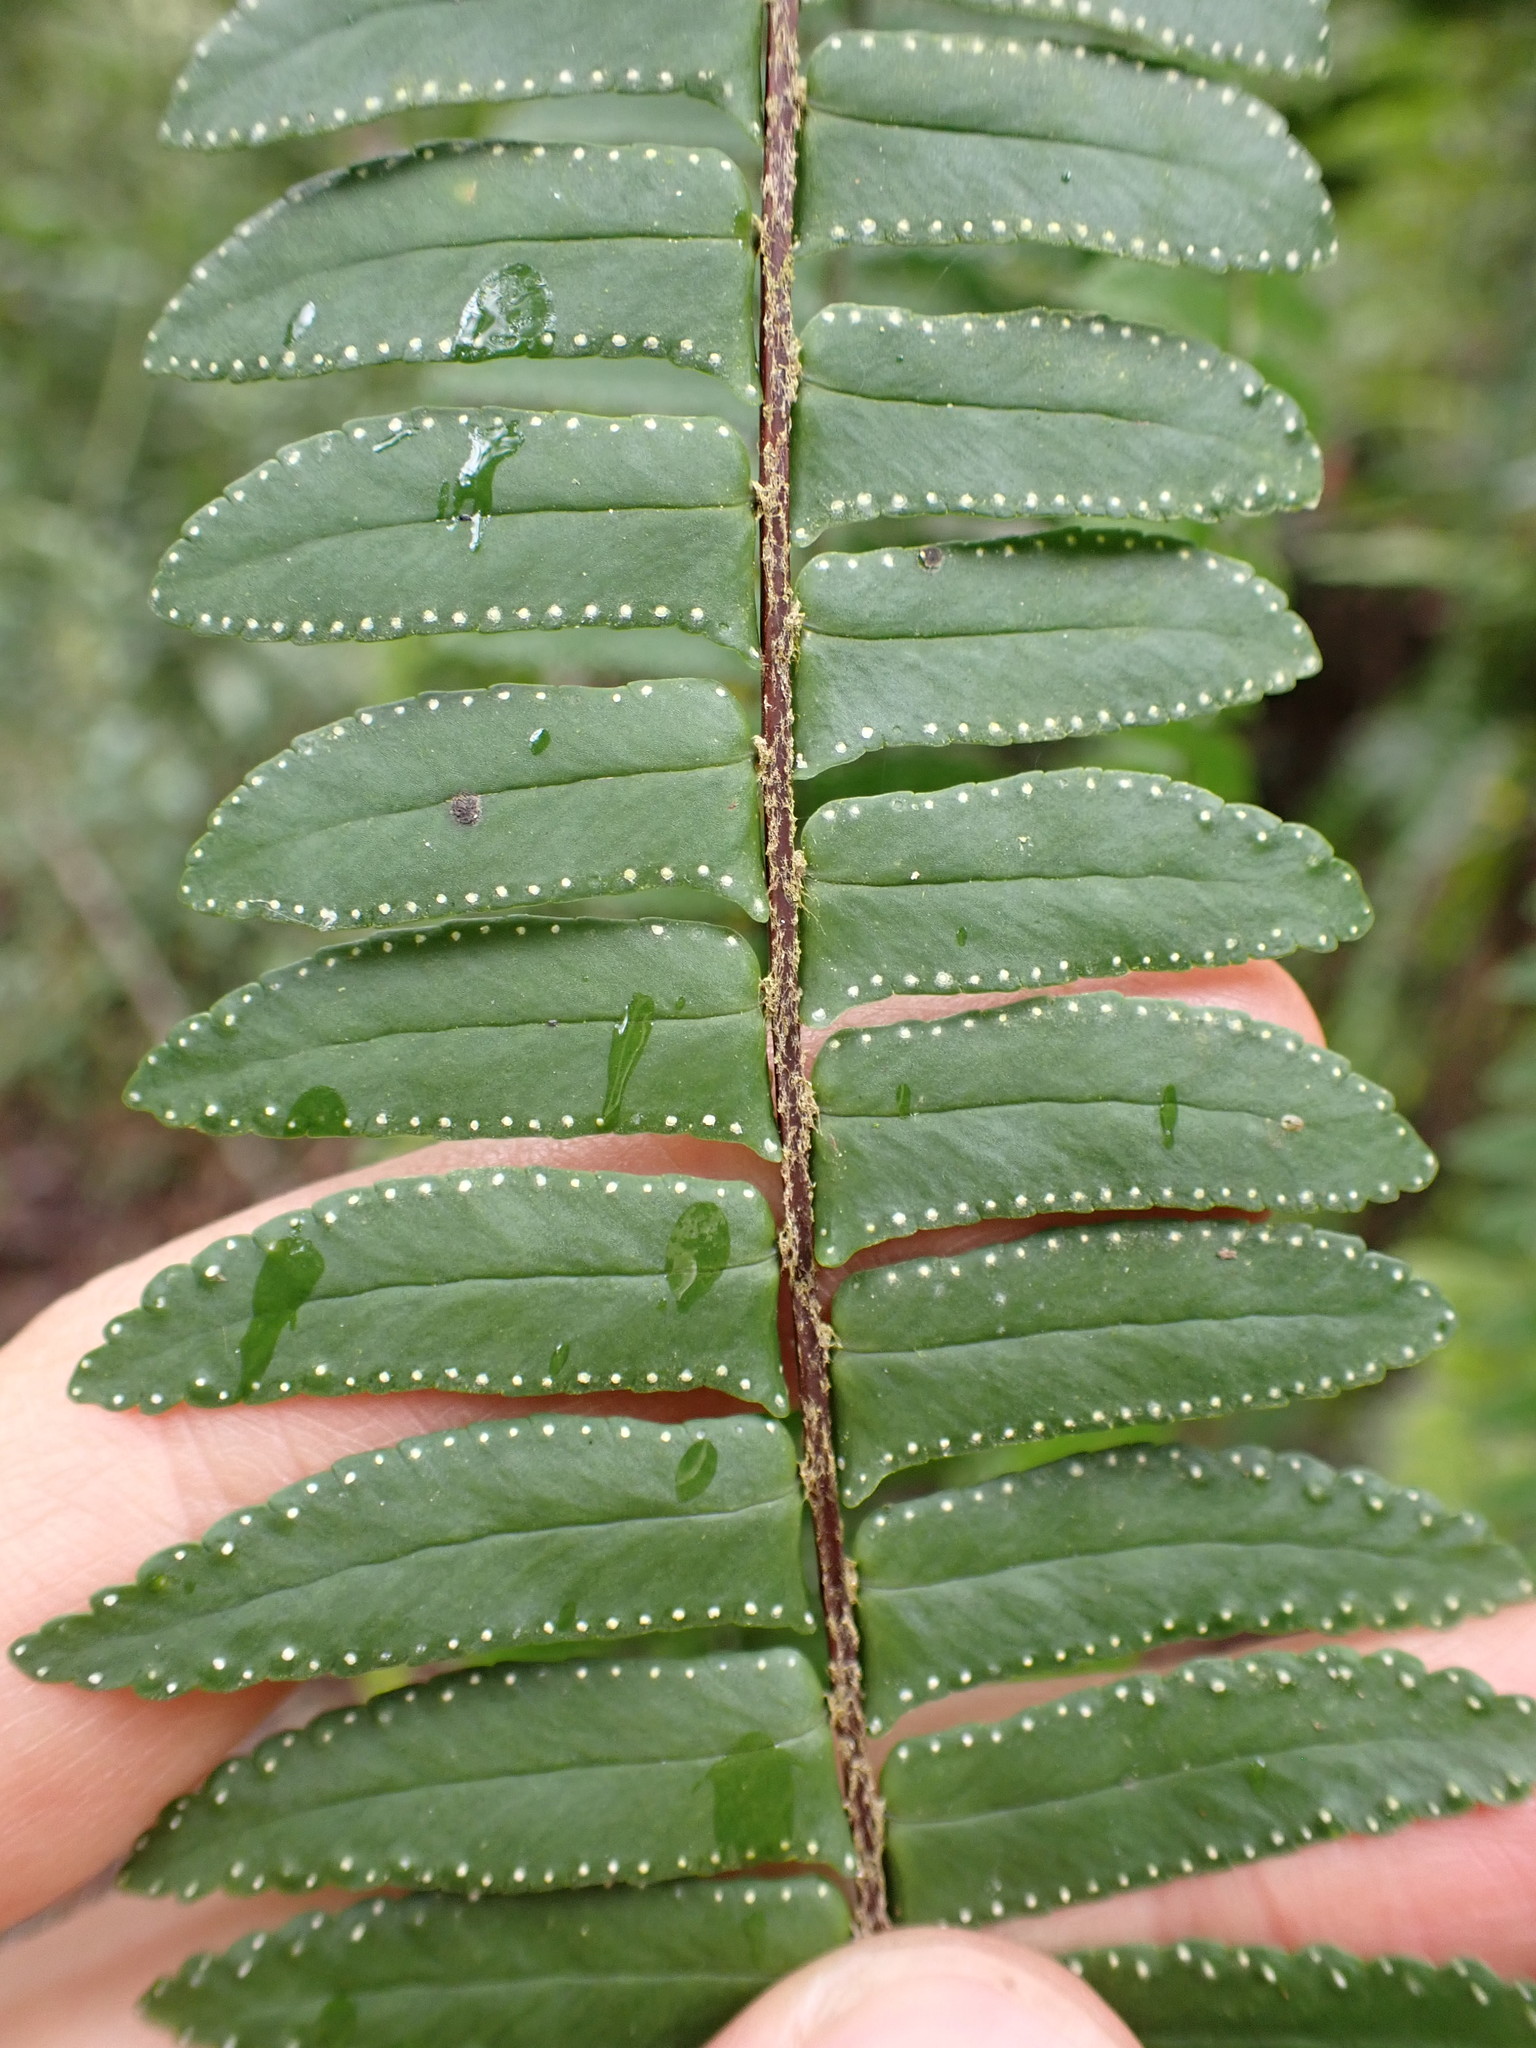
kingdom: Plantae
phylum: Tracheophyta
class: Polypodiopsida
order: Polypodiales
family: Nephrolepidaceae
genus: Nephrolepis
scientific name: Nephrolepis pectinata
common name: Basket fern
